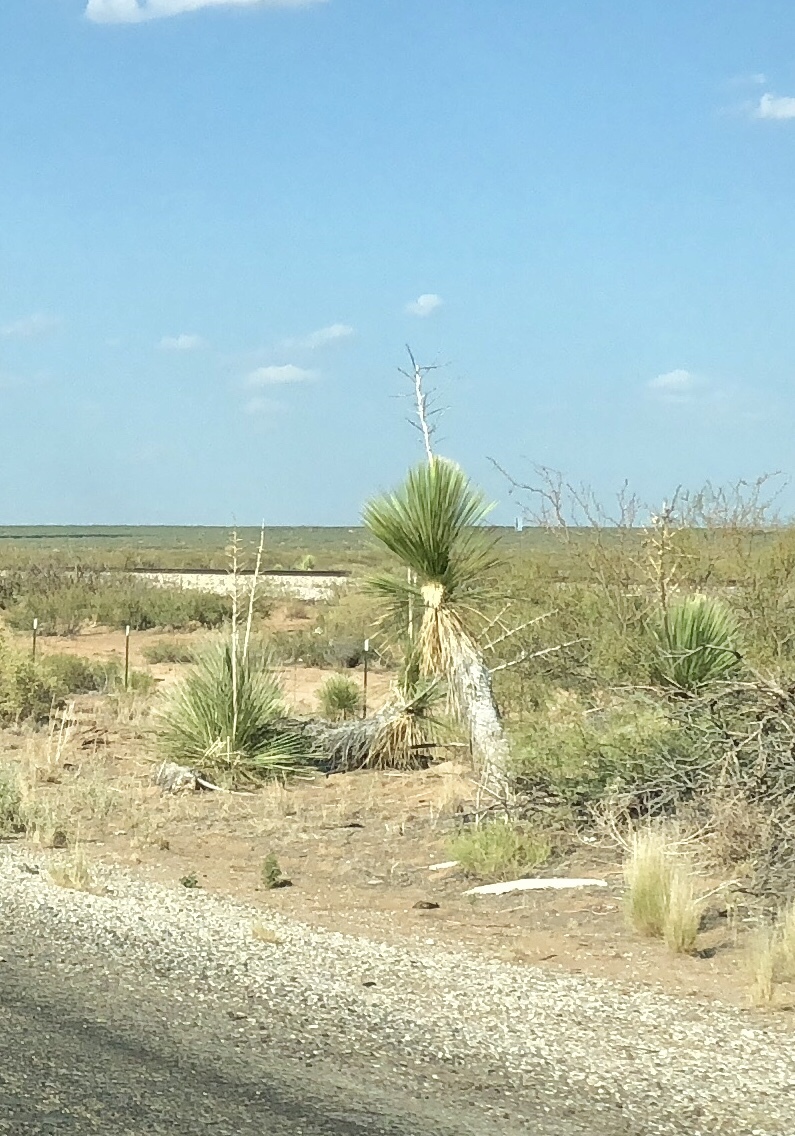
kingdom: Plantae
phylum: Tracheophyta
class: Liliopsida
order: Asparagales
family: Asparagaceae
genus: Yucca
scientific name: Yucca elata
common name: Palmella
